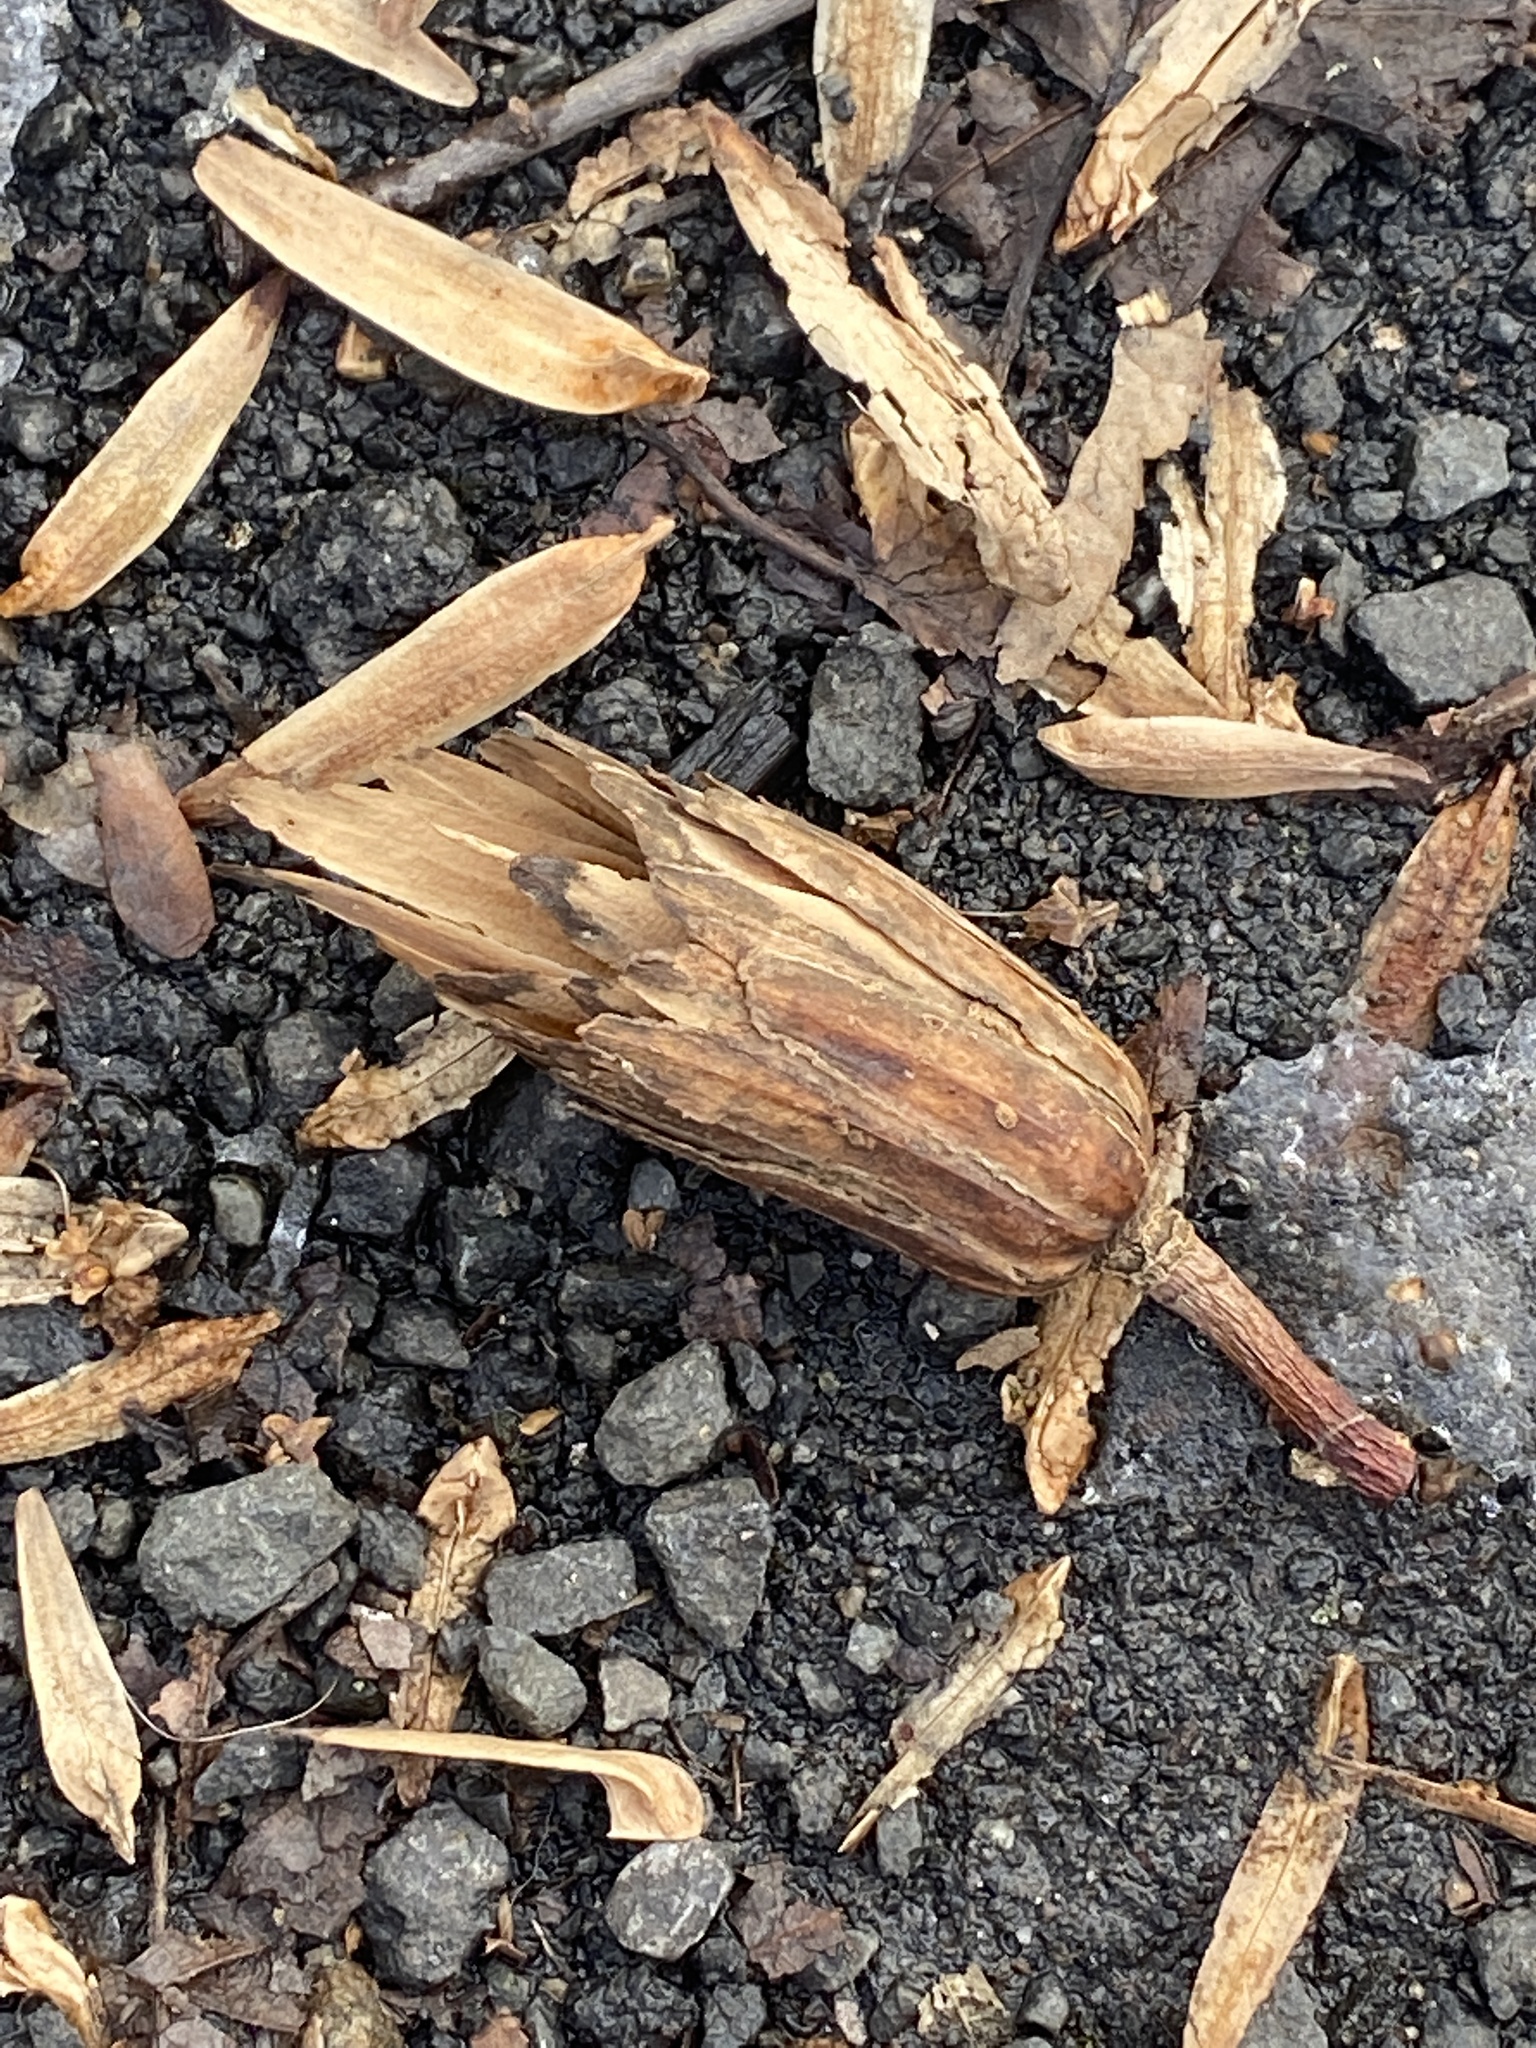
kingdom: Plantae
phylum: Tracheophyta
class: Magnoliopsida
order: Magnoliales
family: Magnoliaceae
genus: Liriodendron
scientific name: Liriodendron tulipifera
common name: Tulip tree
